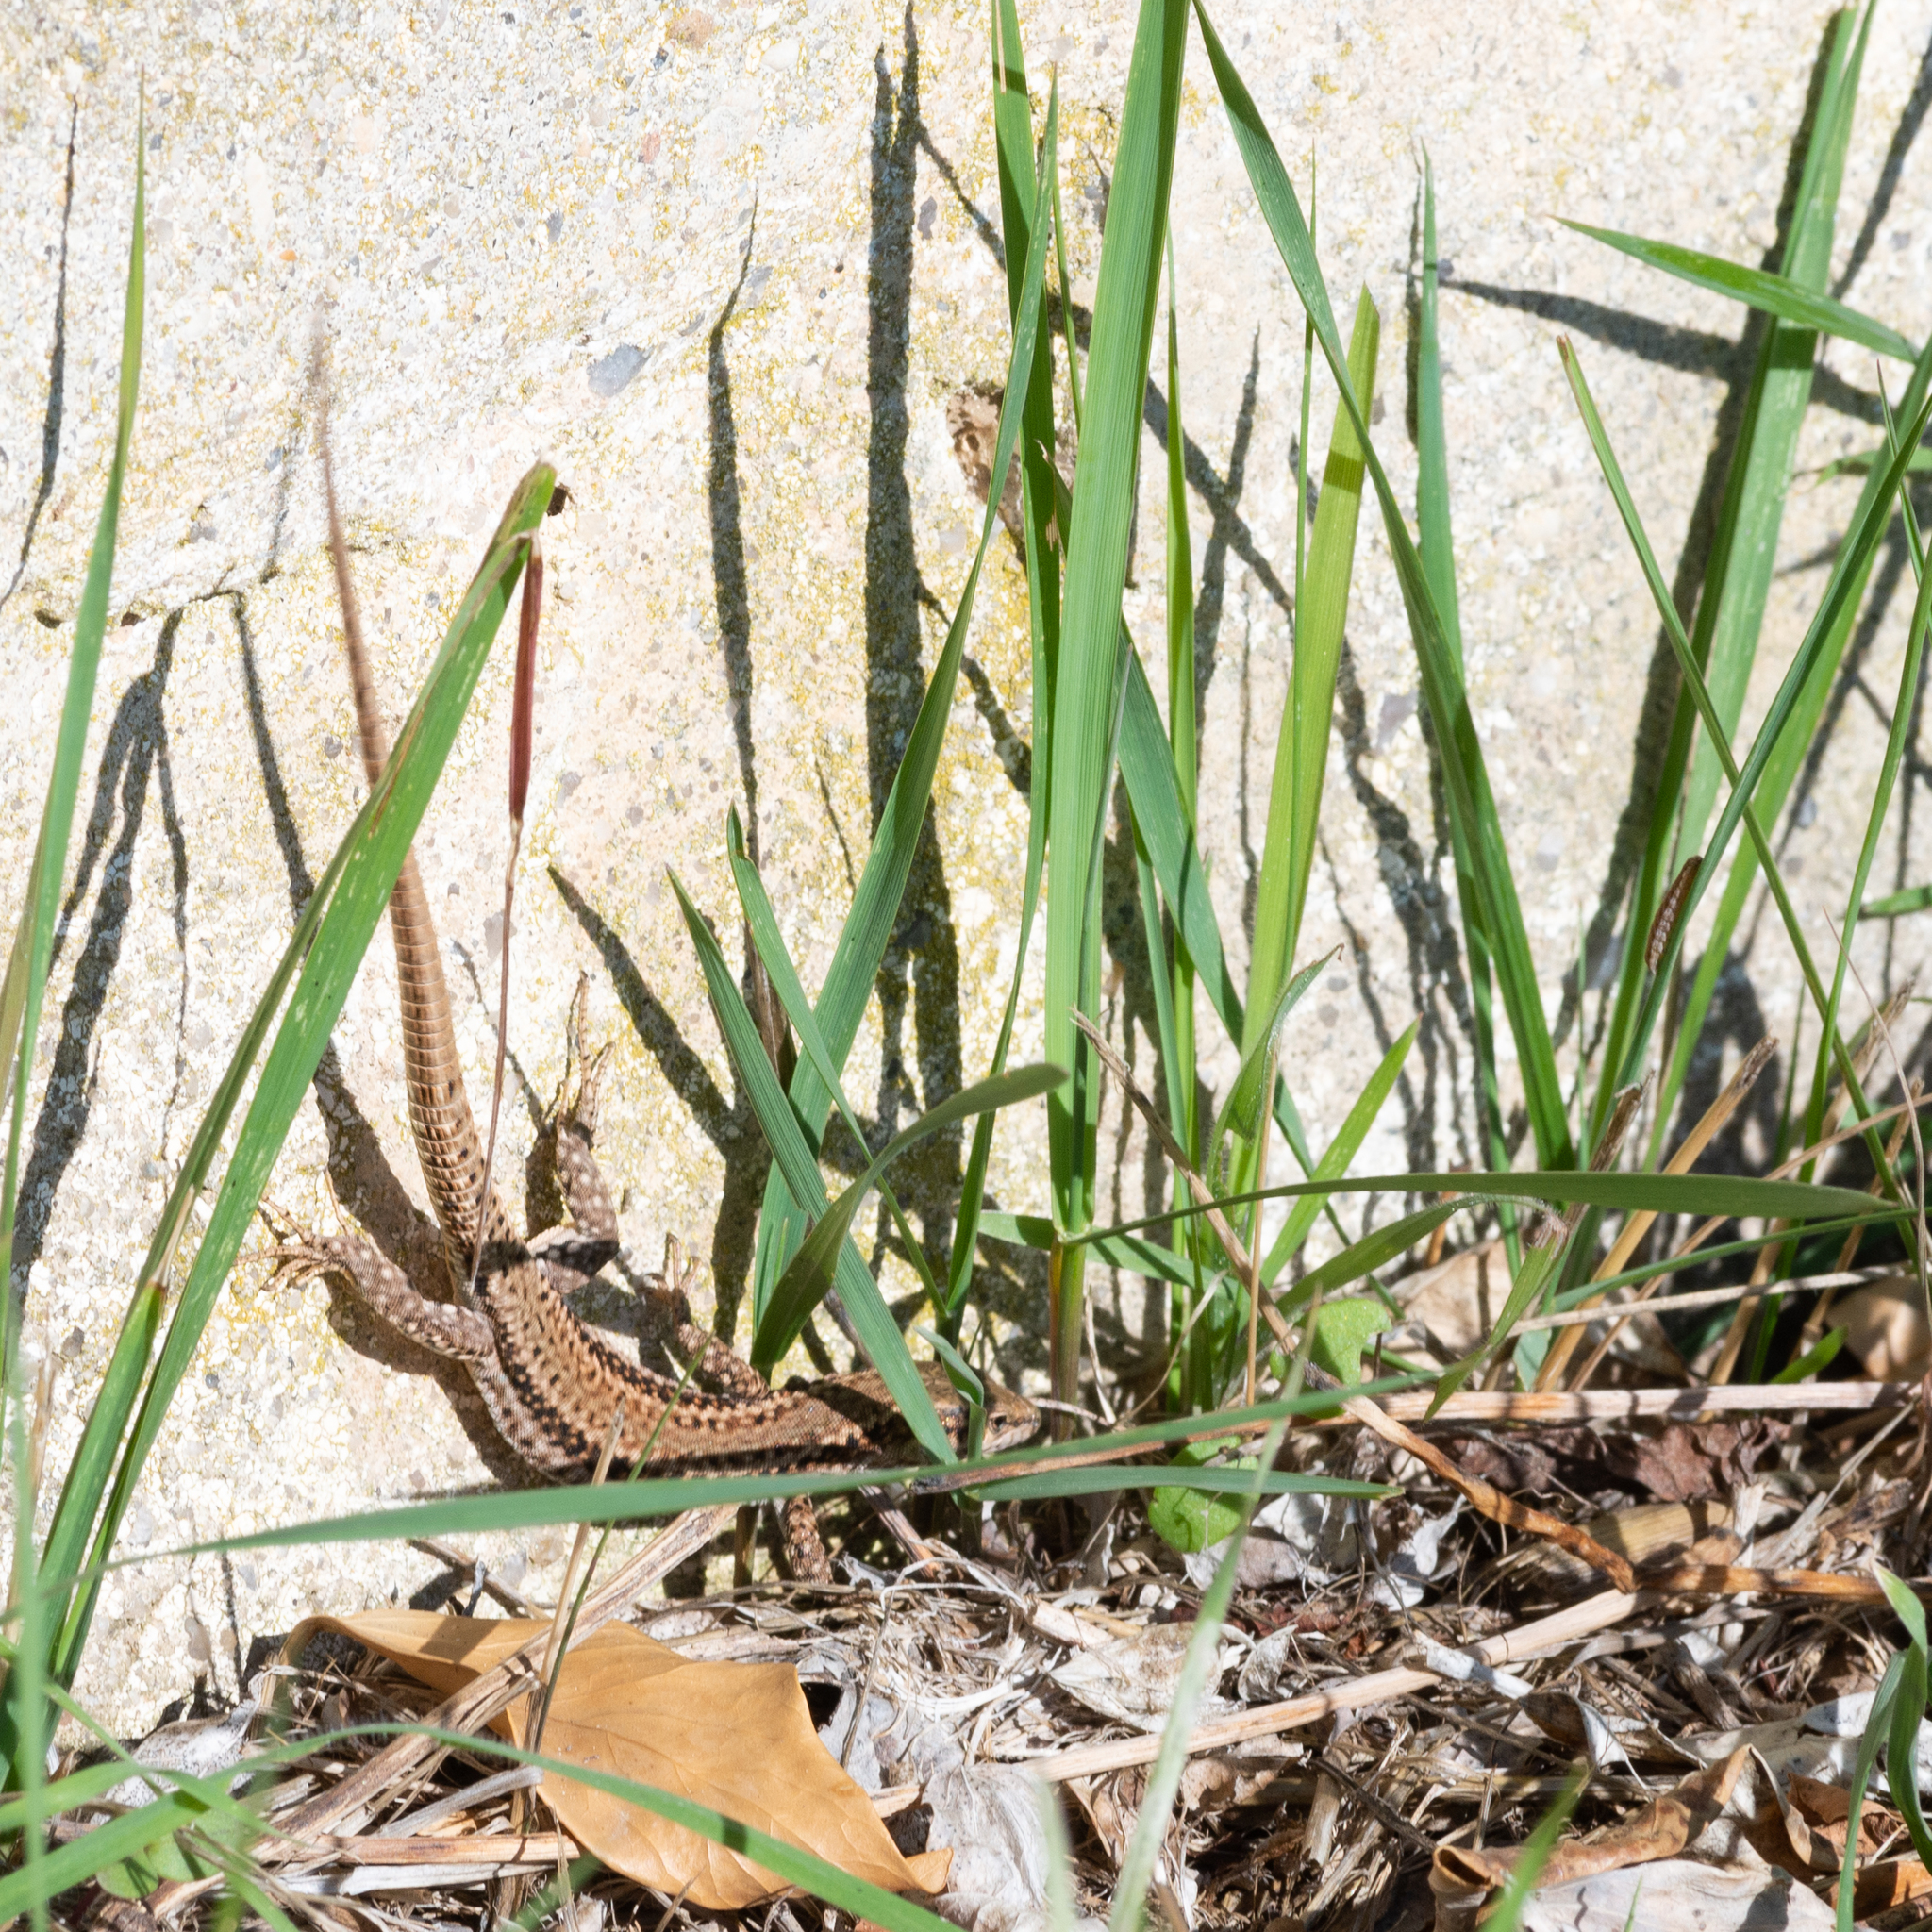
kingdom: Animalia
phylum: Chordata
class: Squamata
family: Lacertidae
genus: Podarcis
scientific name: Podarcis liolepis
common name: Catalonian wall lizard
